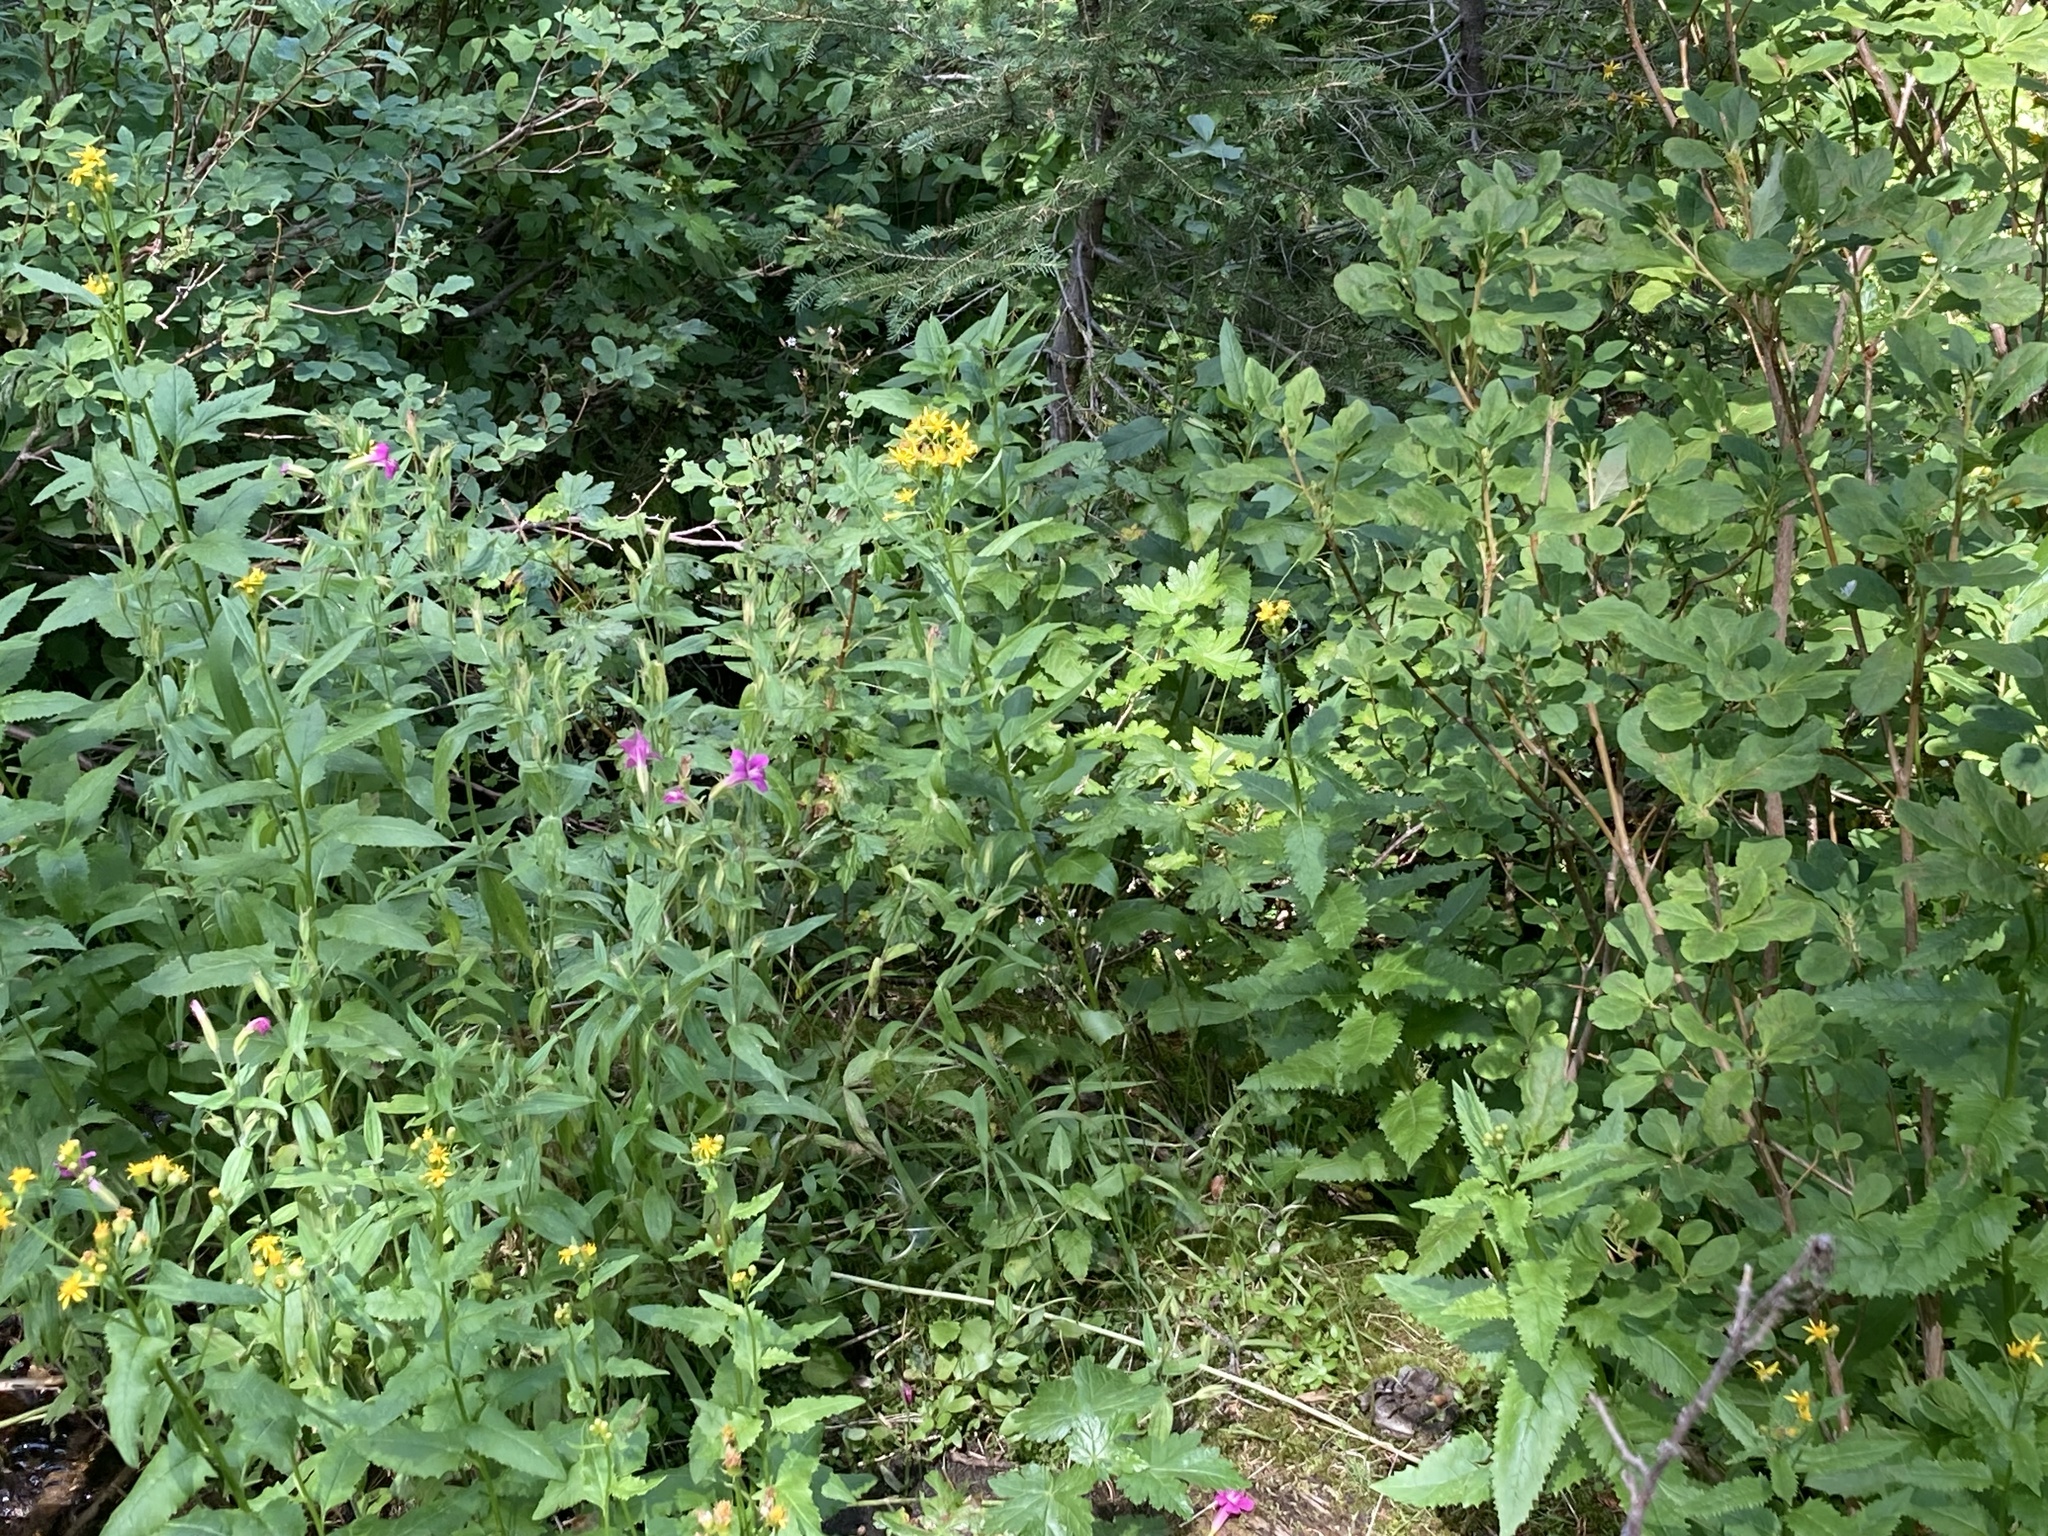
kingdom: Plantae
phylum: Tracheophyta
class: Magnoliopsida
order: Lamiales
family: Phrymaceae
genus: Erythranthe
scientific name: Erythranthe lewisii
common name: Lewis's monkey-flower
